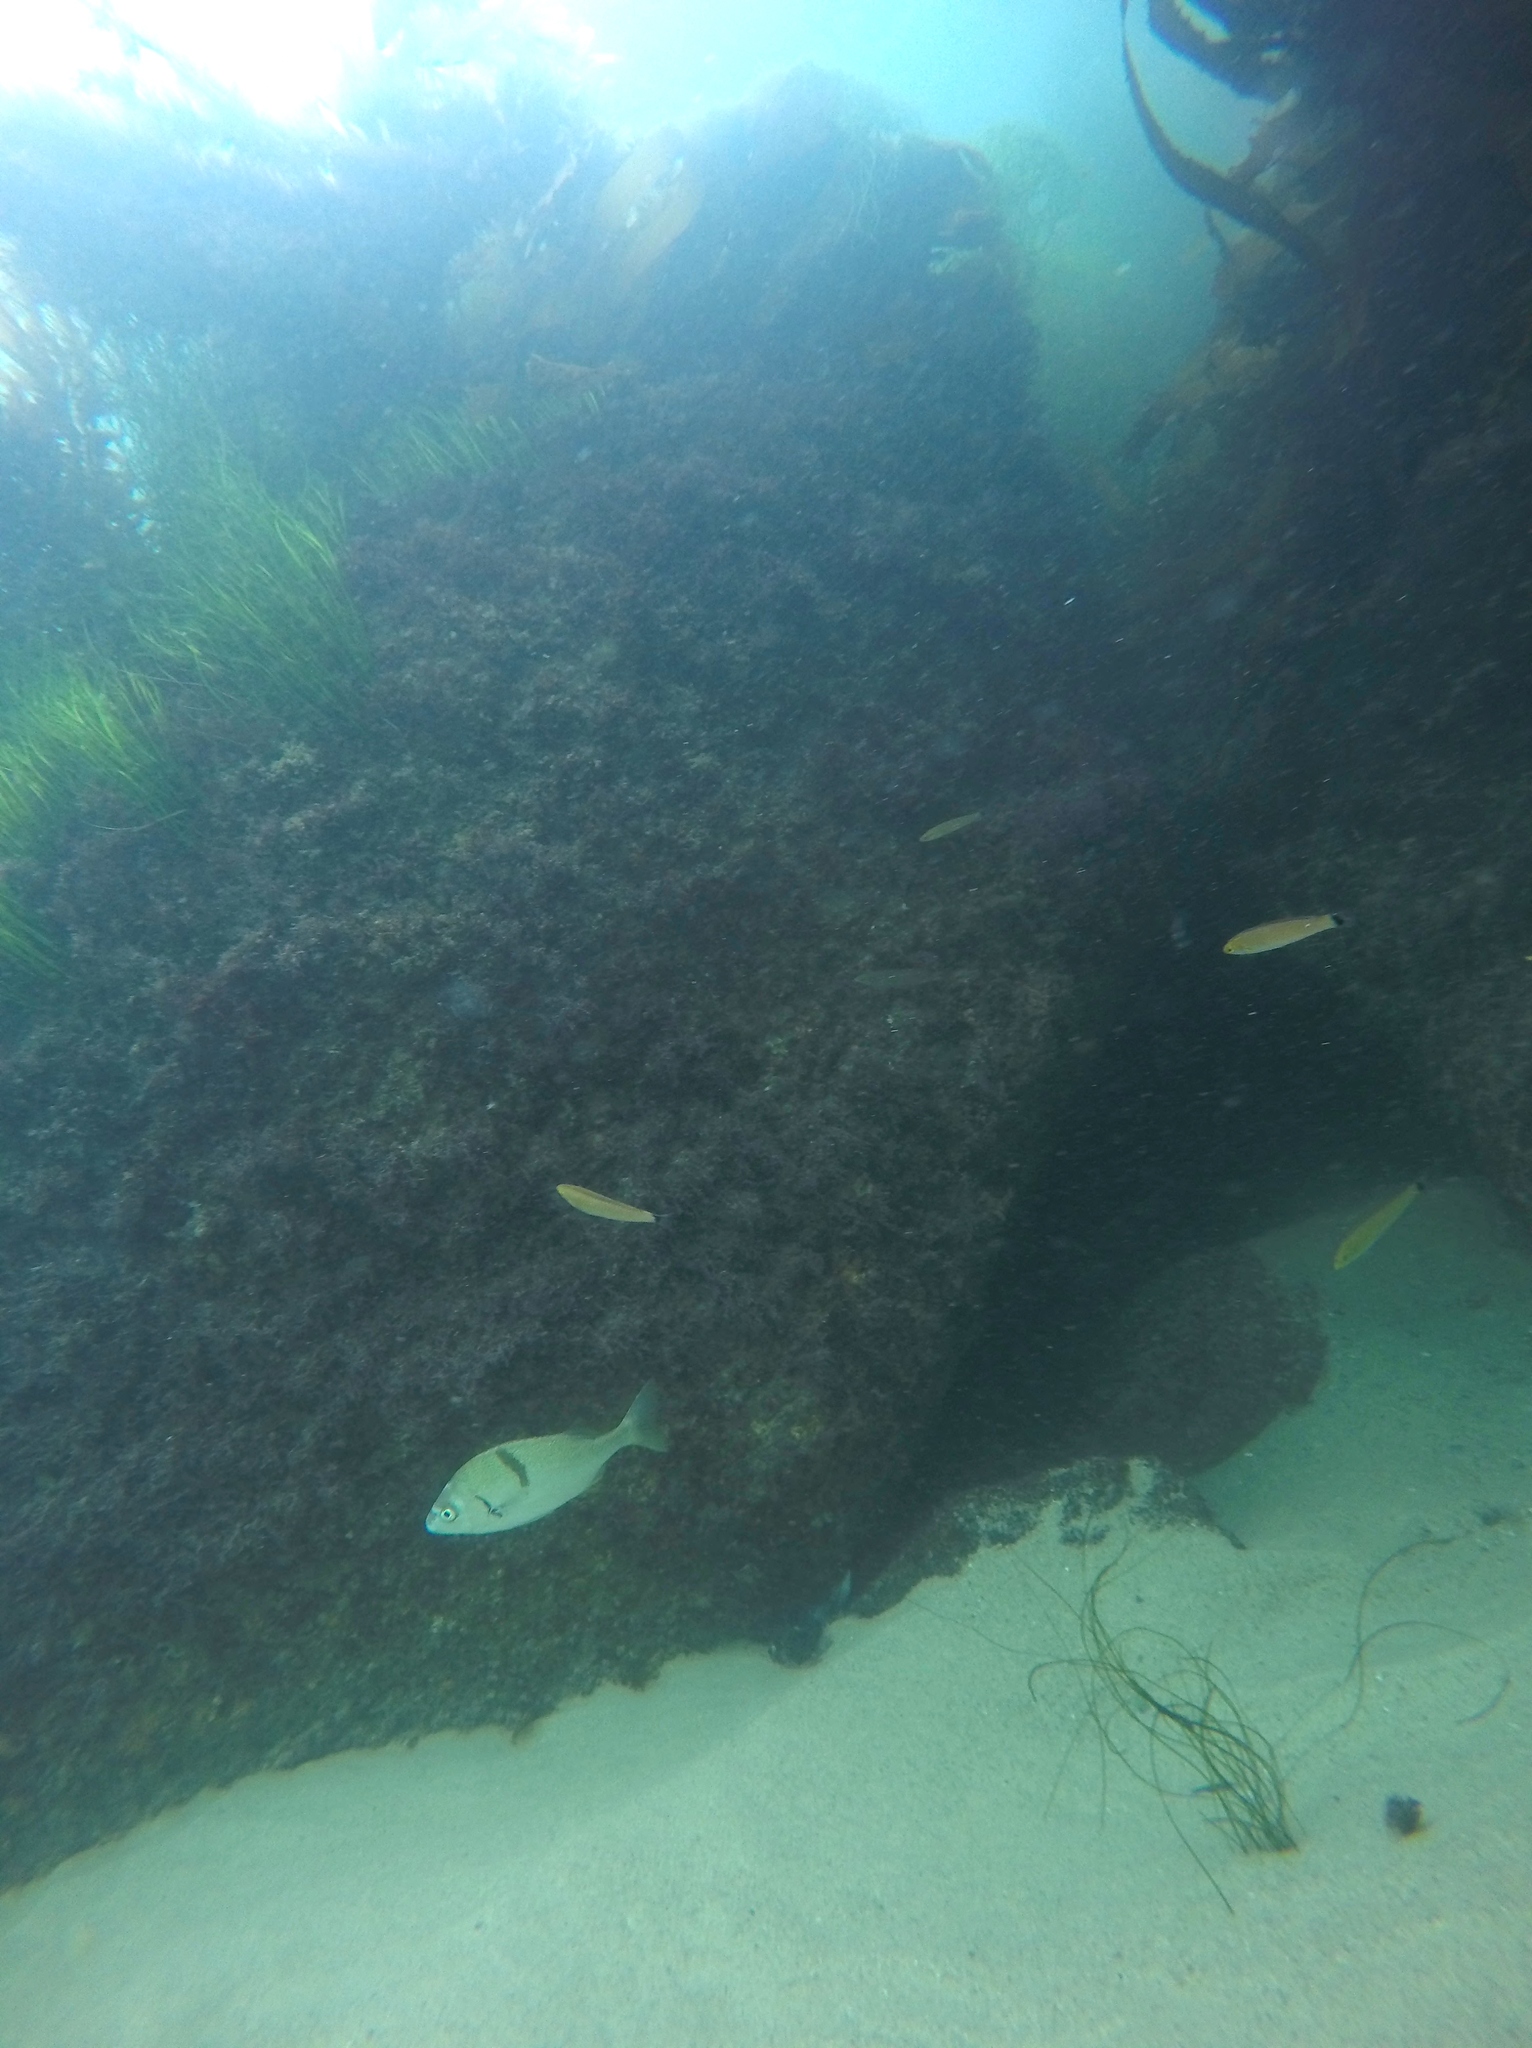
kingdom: Animalia
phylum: Chordata
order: Perciformes
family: Haemulidae
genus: Anisotremus
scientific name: Anisotremus davidsonii
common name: Grunt
